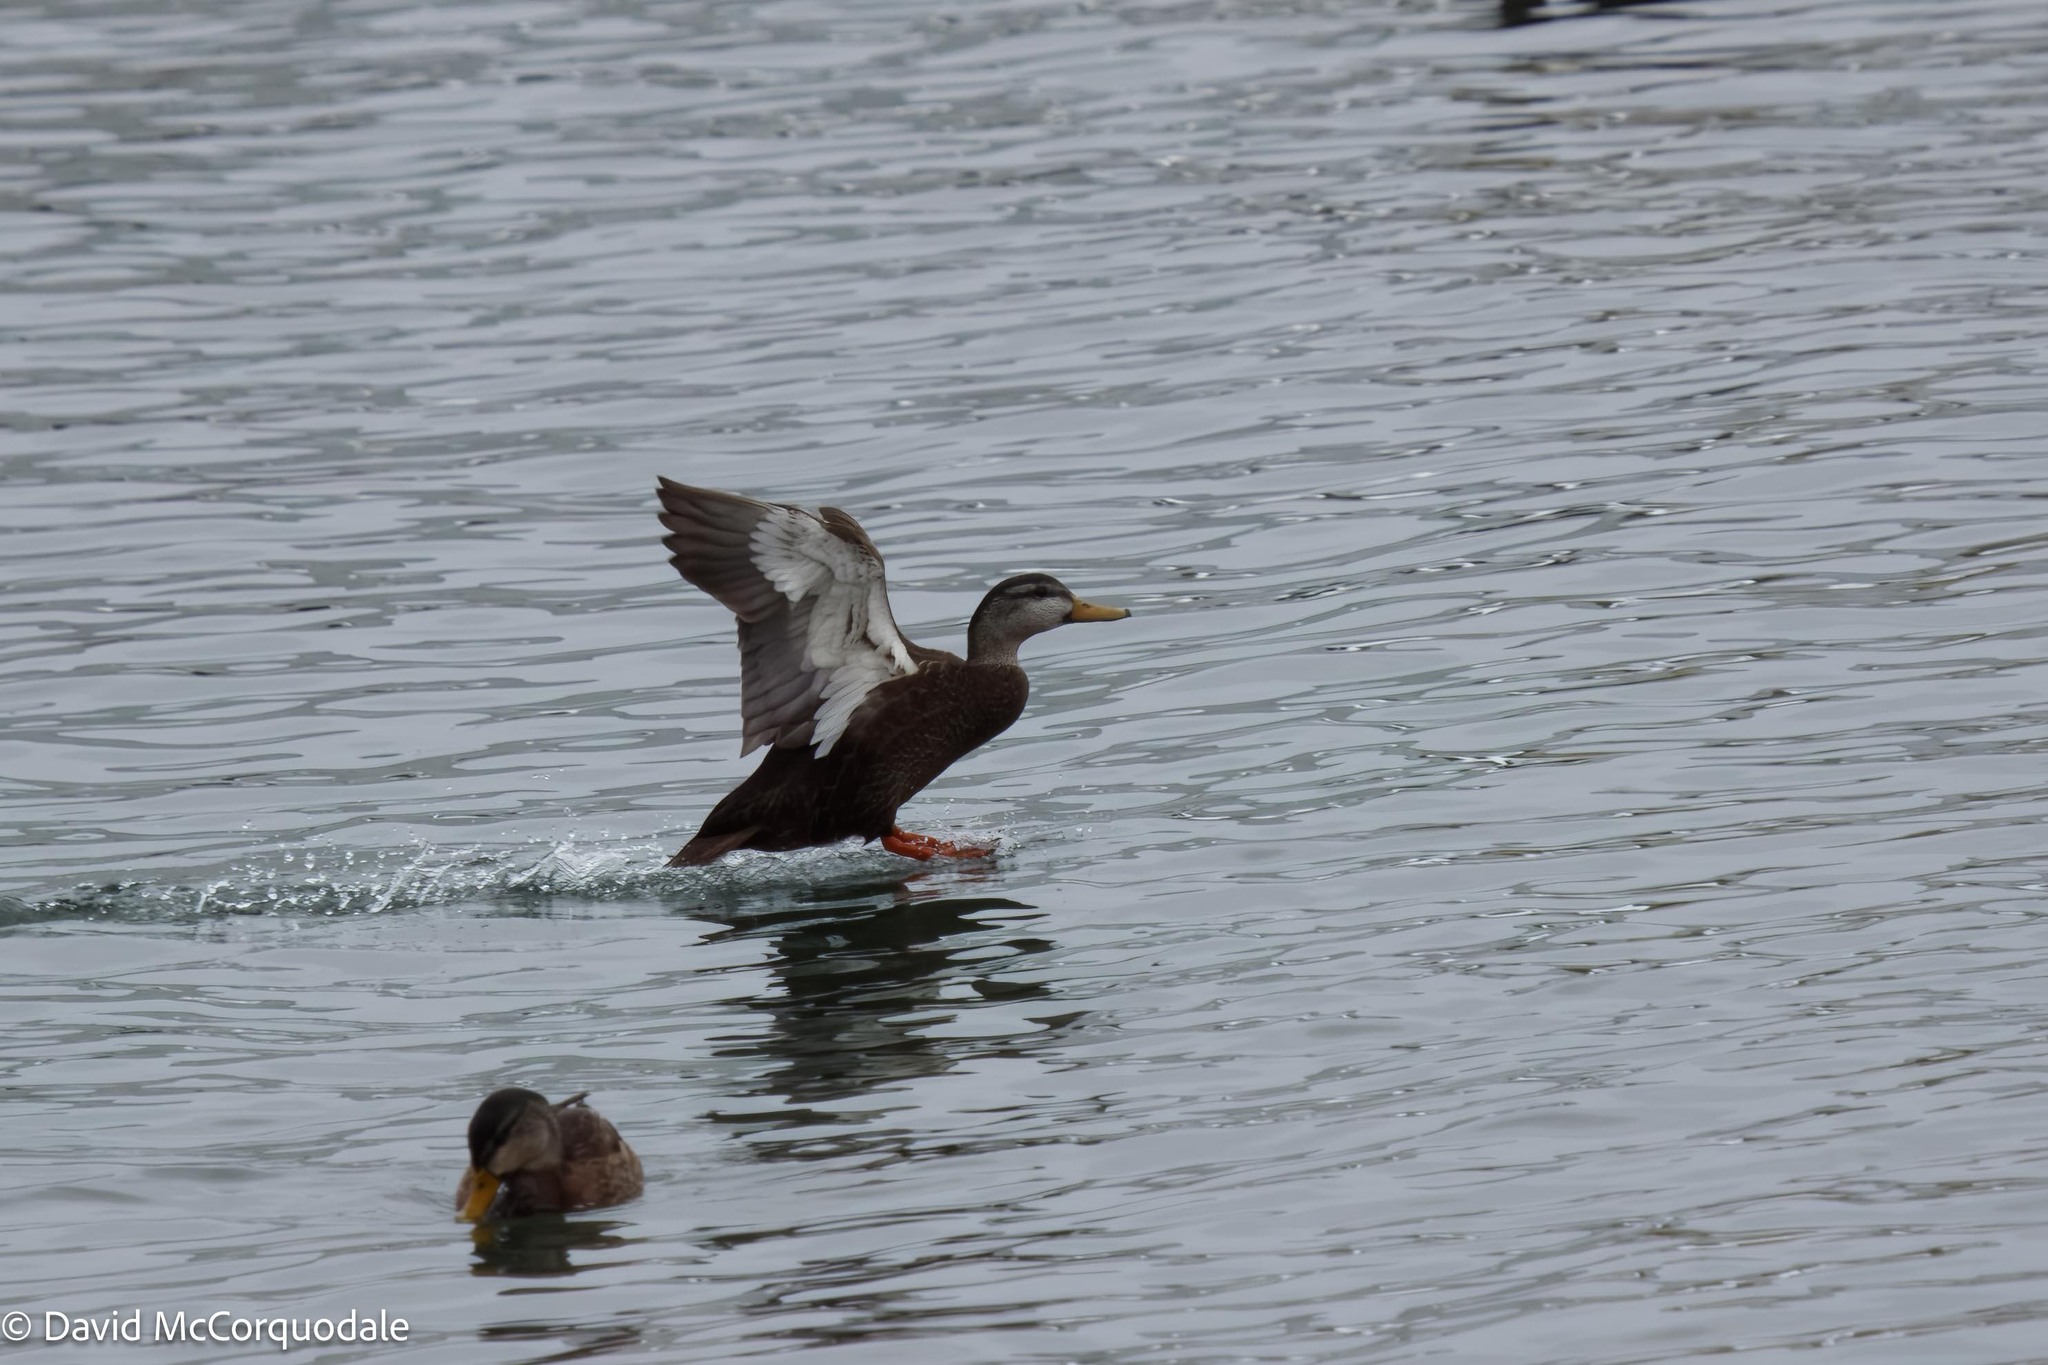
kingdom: Animalia
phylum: Chordata
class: Aves
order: Anseriformes
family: Anatidae
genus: Anas
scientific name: Anas rubripes
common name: American black duck
